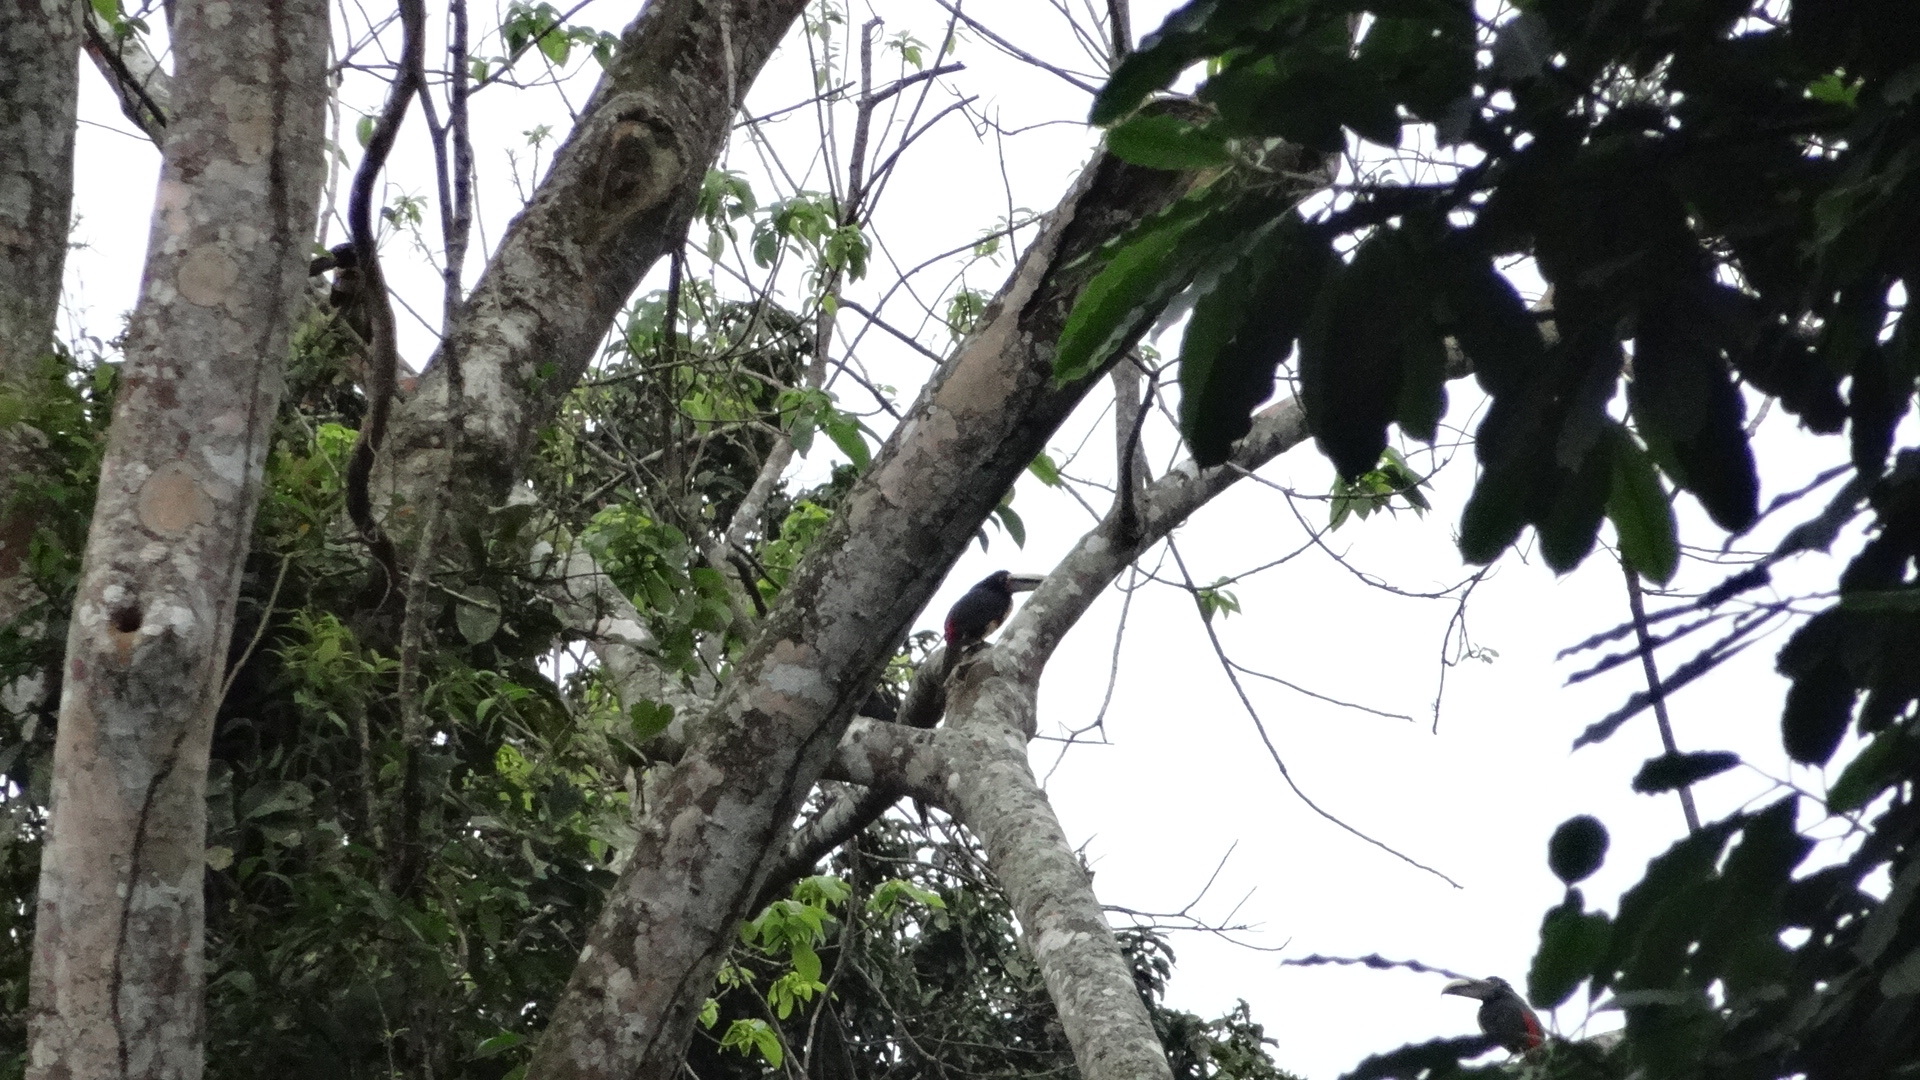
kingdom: Animalia
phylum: Chordata
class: Aves
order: Piciformes
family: Ramphastidae
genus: Pteroglossus
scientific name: Pteroglossus torquatus
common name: Collared aracari
